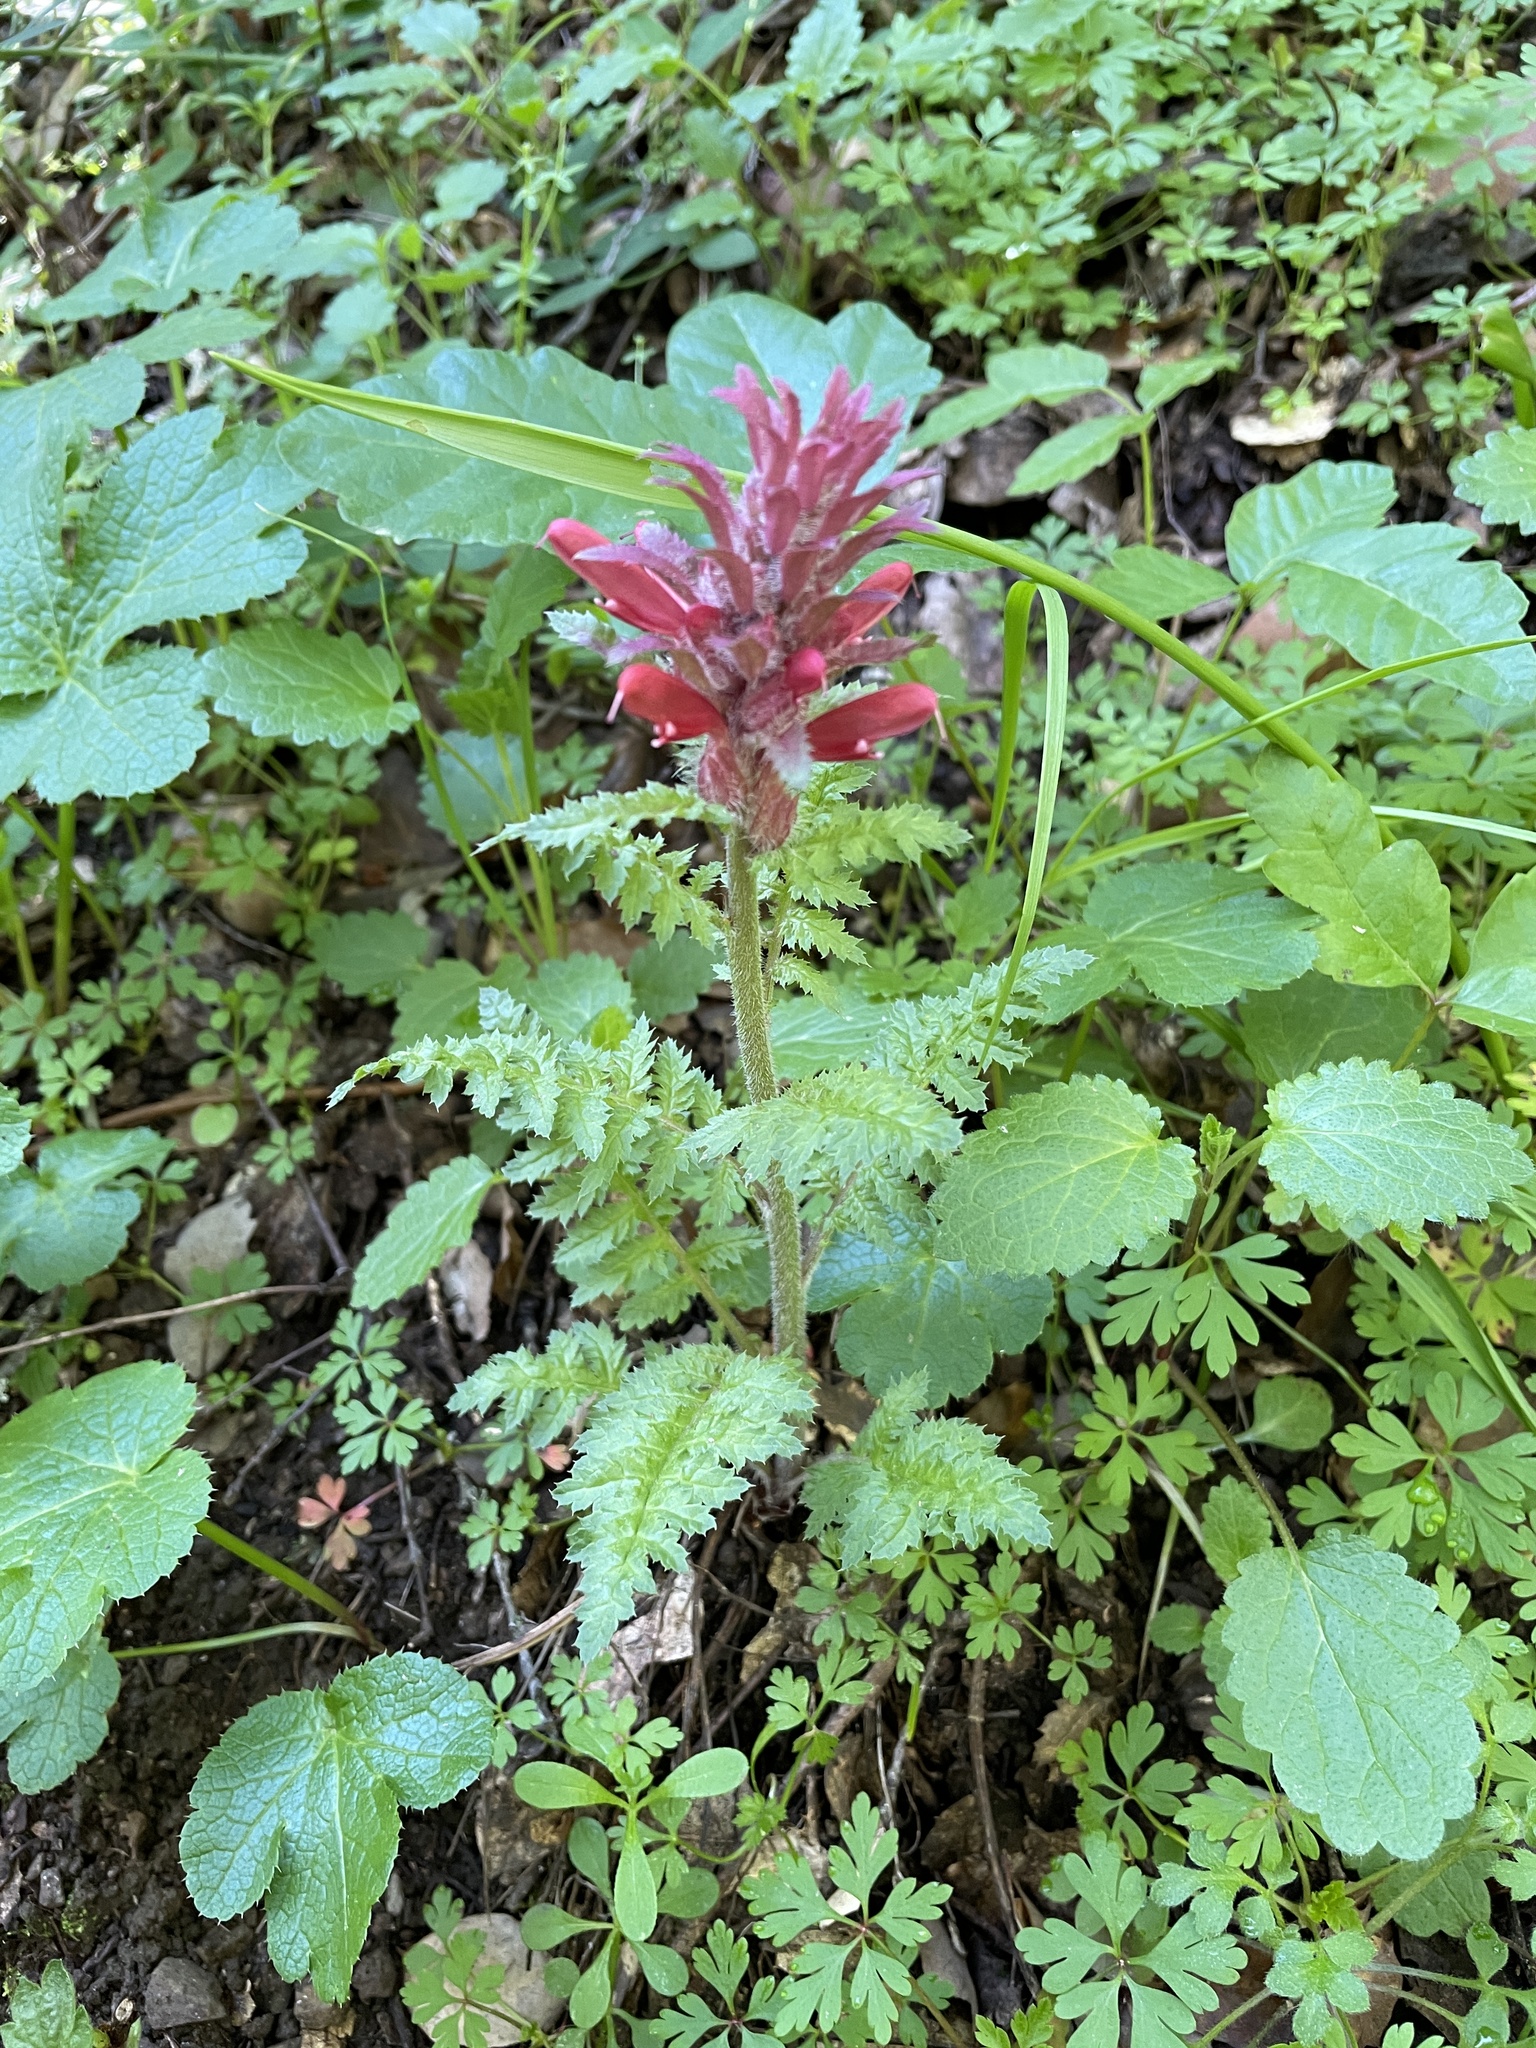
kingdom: Plantae
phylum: Tracheophyta
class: Magnoliopsida
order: Lamiales
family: Orobanchaceae
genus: Pedicularis
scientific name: Pedicularis densiflora
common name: Indian warrior
